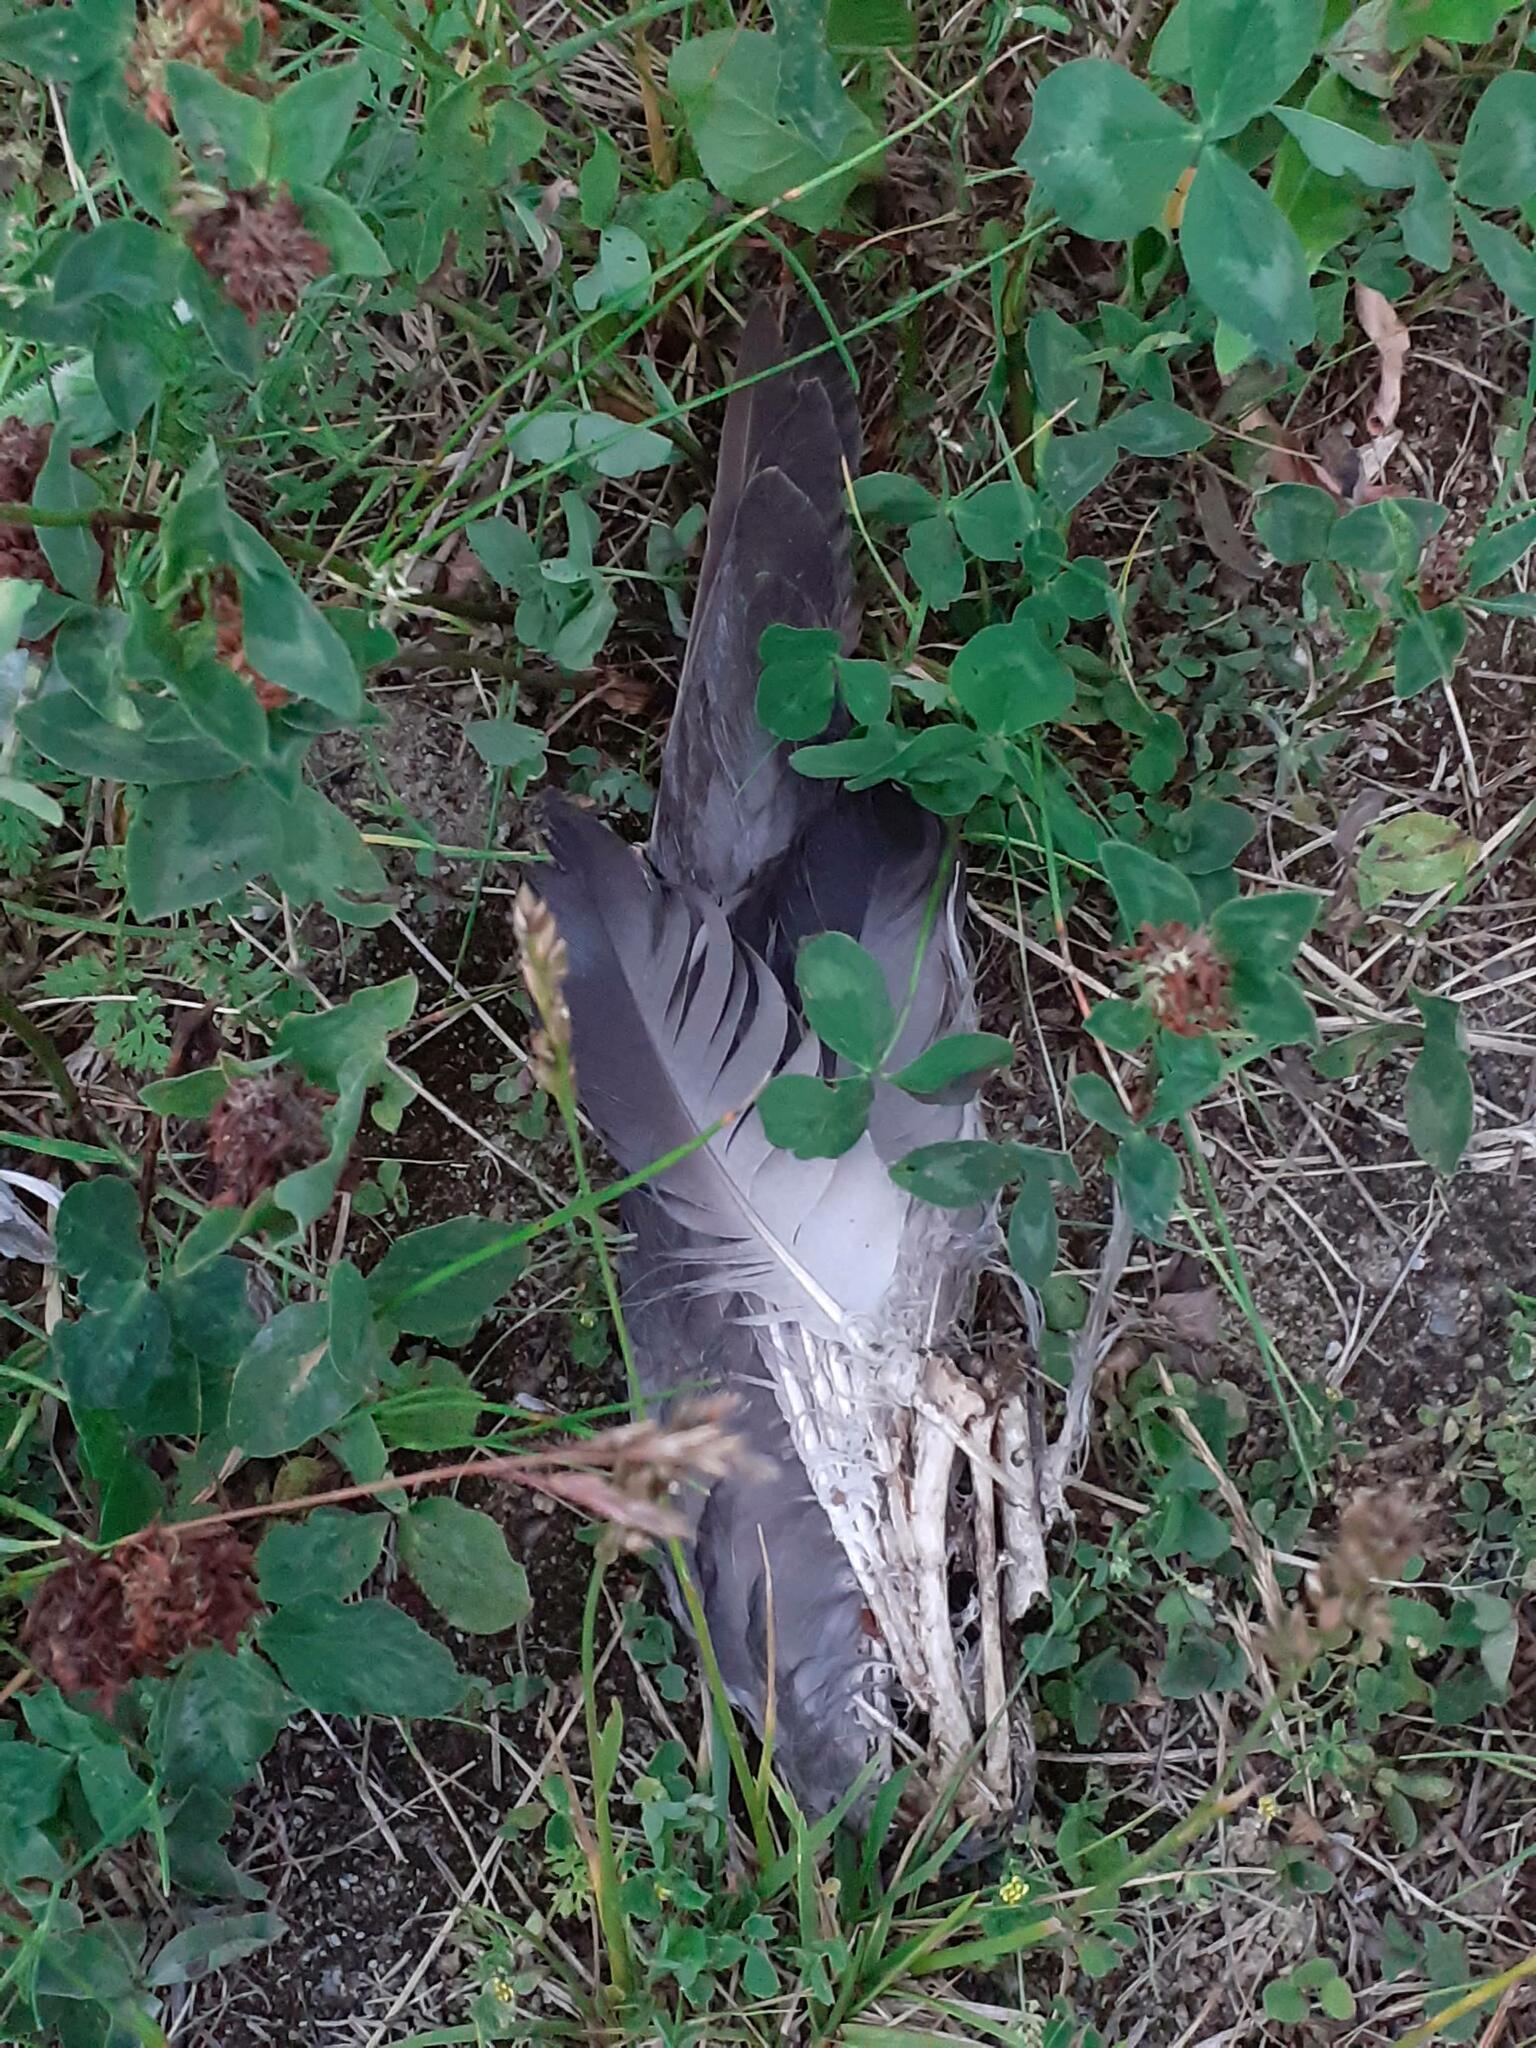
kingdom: Animalia
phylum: Chordata
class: Aves
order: Columbiformes
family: Columbidae
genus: Columba
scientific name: Columba livia
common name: Rock pigeon
